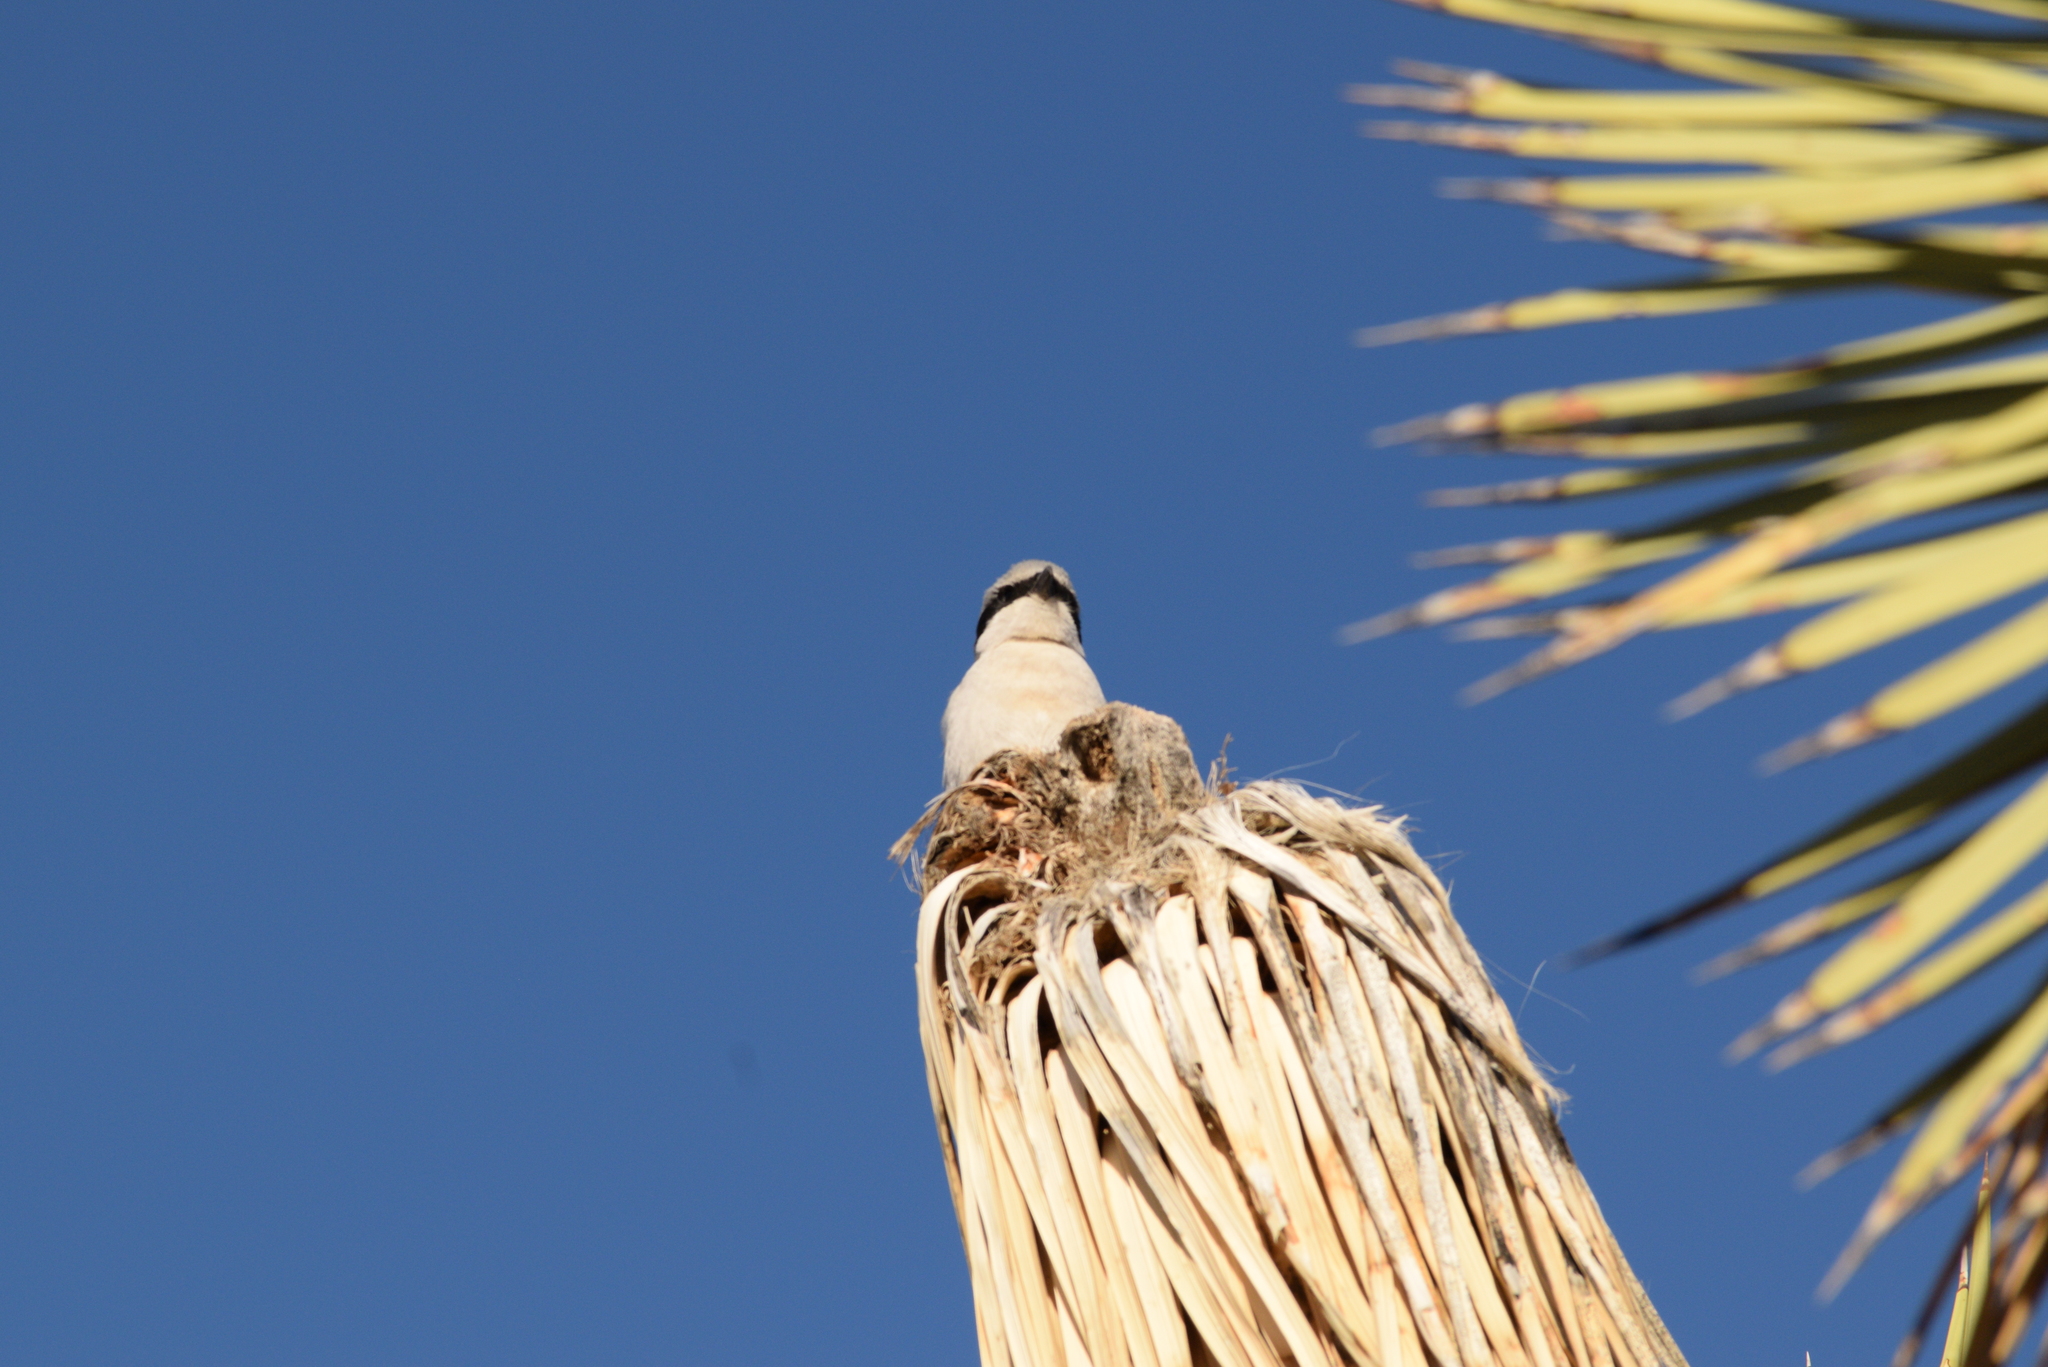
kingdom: Animalia
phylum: Chordata
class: Aves
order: Passeriformes
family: Laniidae
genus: Lanius
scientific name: Lanius ludovicianus
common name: Loggerhead shrike
